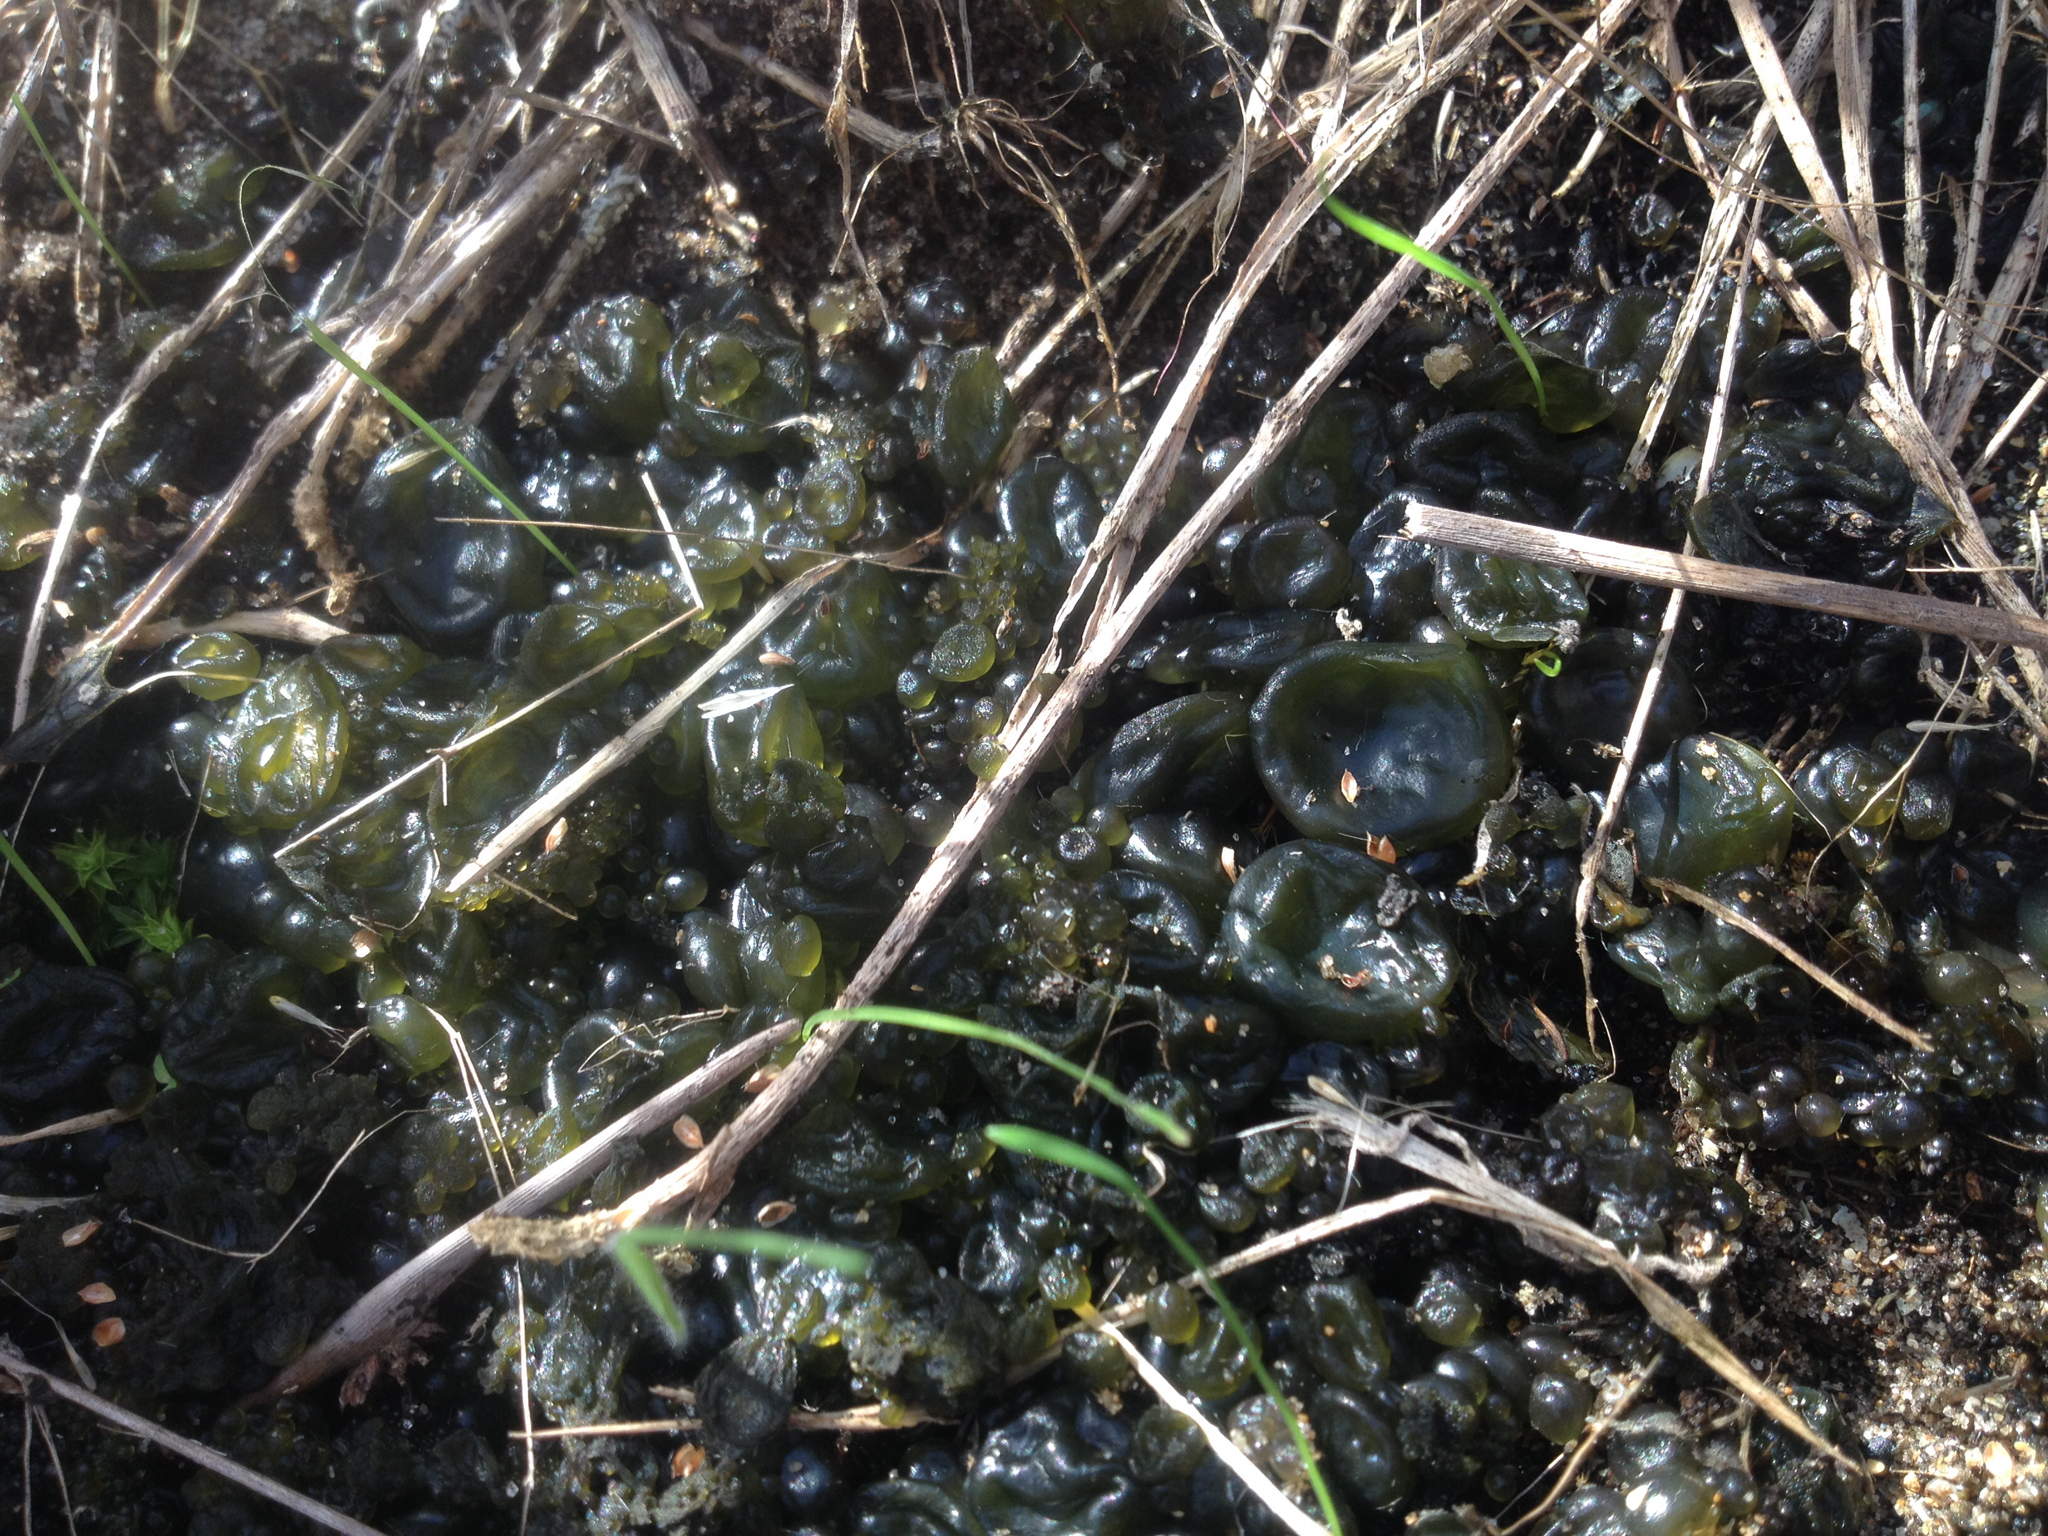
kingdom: Bacteria
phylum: Cyanobacteria
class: Cyanobacteriia
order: Cyanobacteriales
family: Nostocaceae
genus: Nostoc
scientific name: Nostoc
